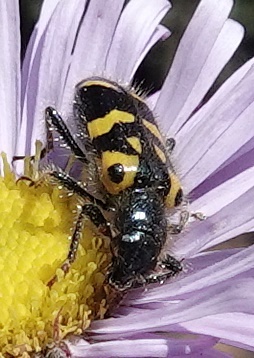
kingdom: Animalia
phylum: Arthropoda
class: Insecta
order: Coleoptera
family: Cleridae
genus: Trichodes
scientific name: Trichodes ornatus
